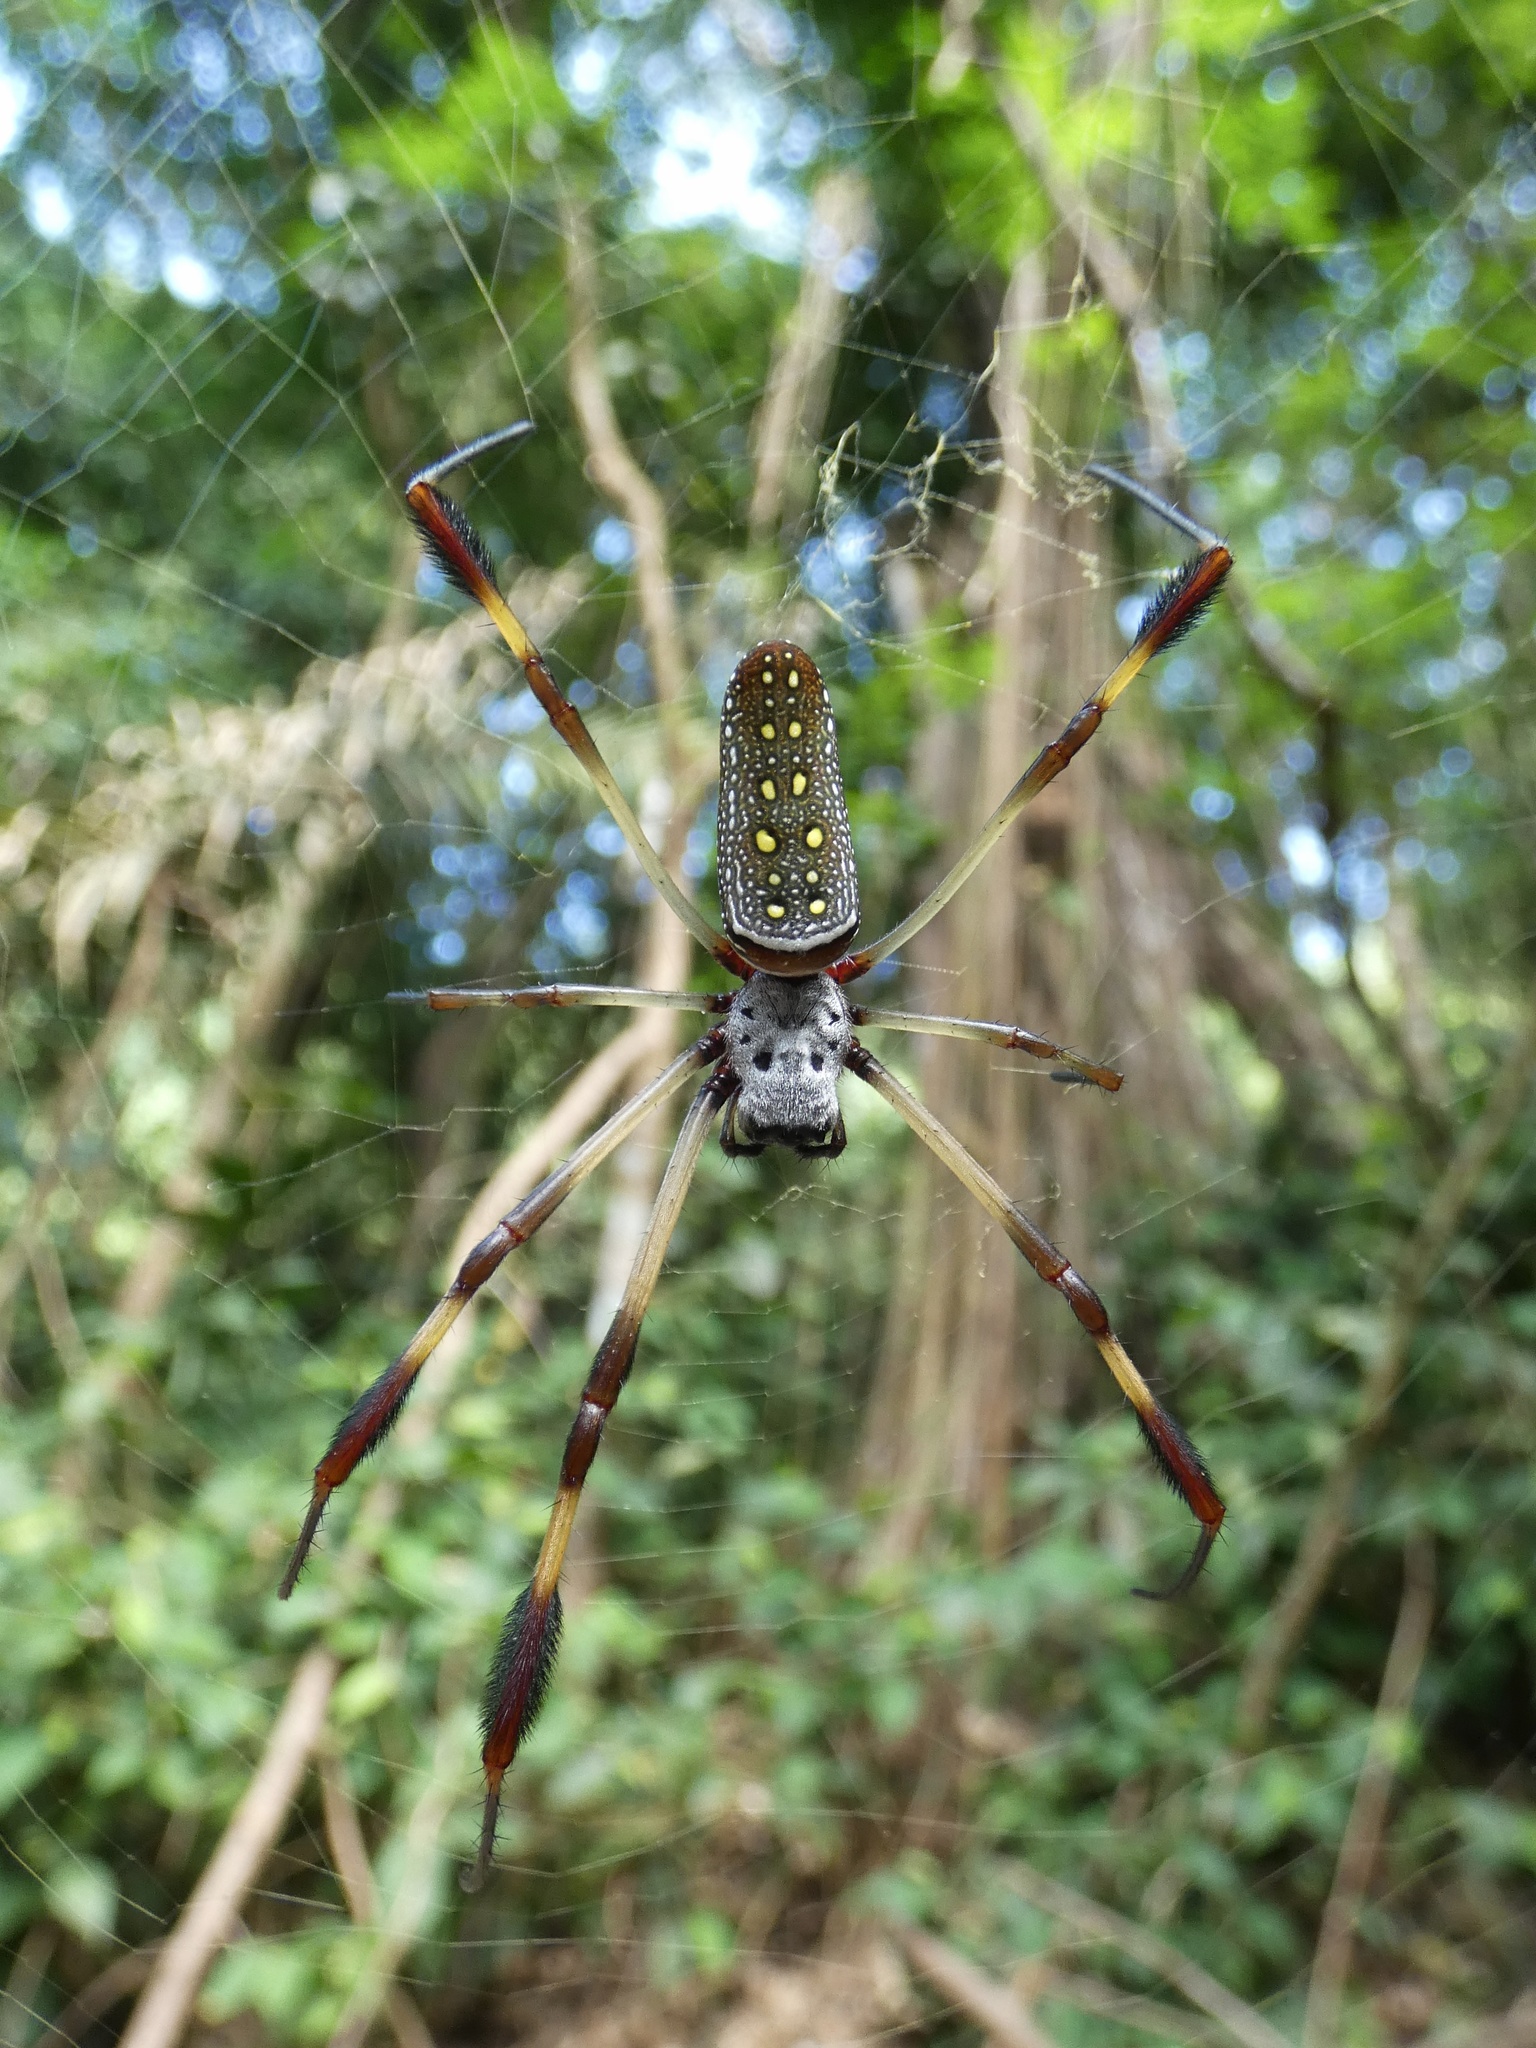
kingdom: Animalia
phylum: Arthropoda
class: Arachnida
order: Araneae
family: Araneidae
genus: Trichonephila
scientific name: Trichonephila clavipes
